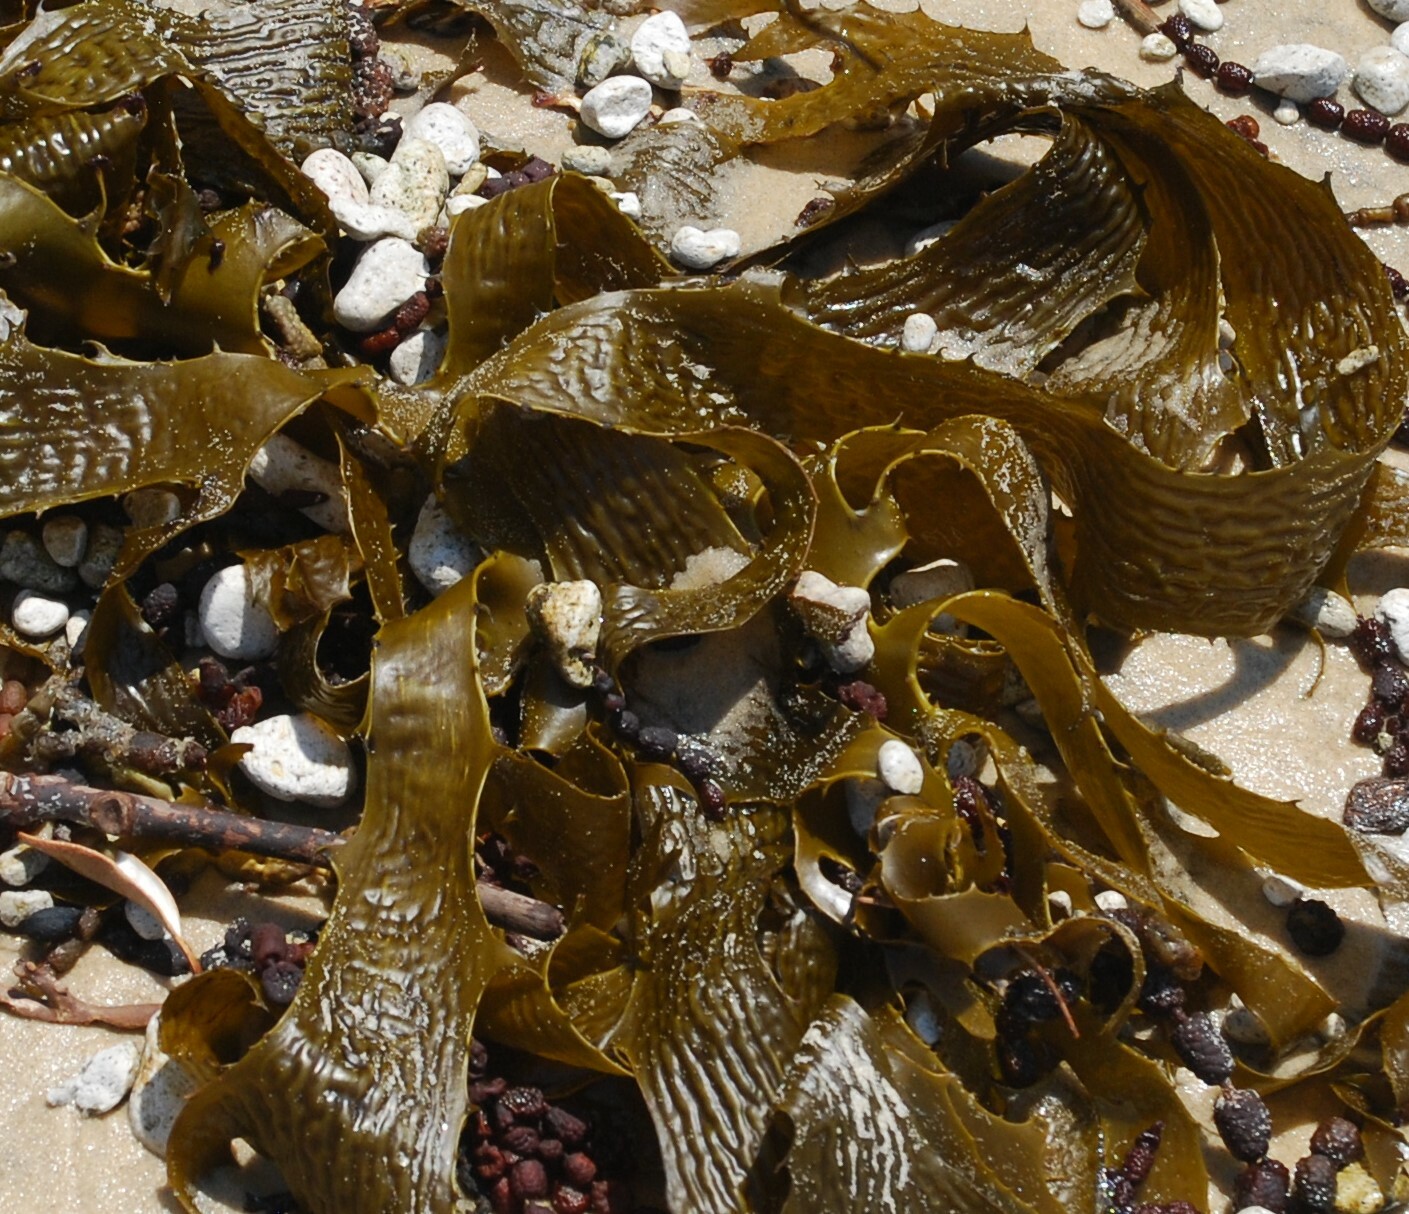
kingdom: Chromista
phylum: Ochrophyta
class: Phaeophyceae
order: Laminariales
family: Lessoniaceae
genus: Ecklonia
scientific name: Ecklonia radiata
